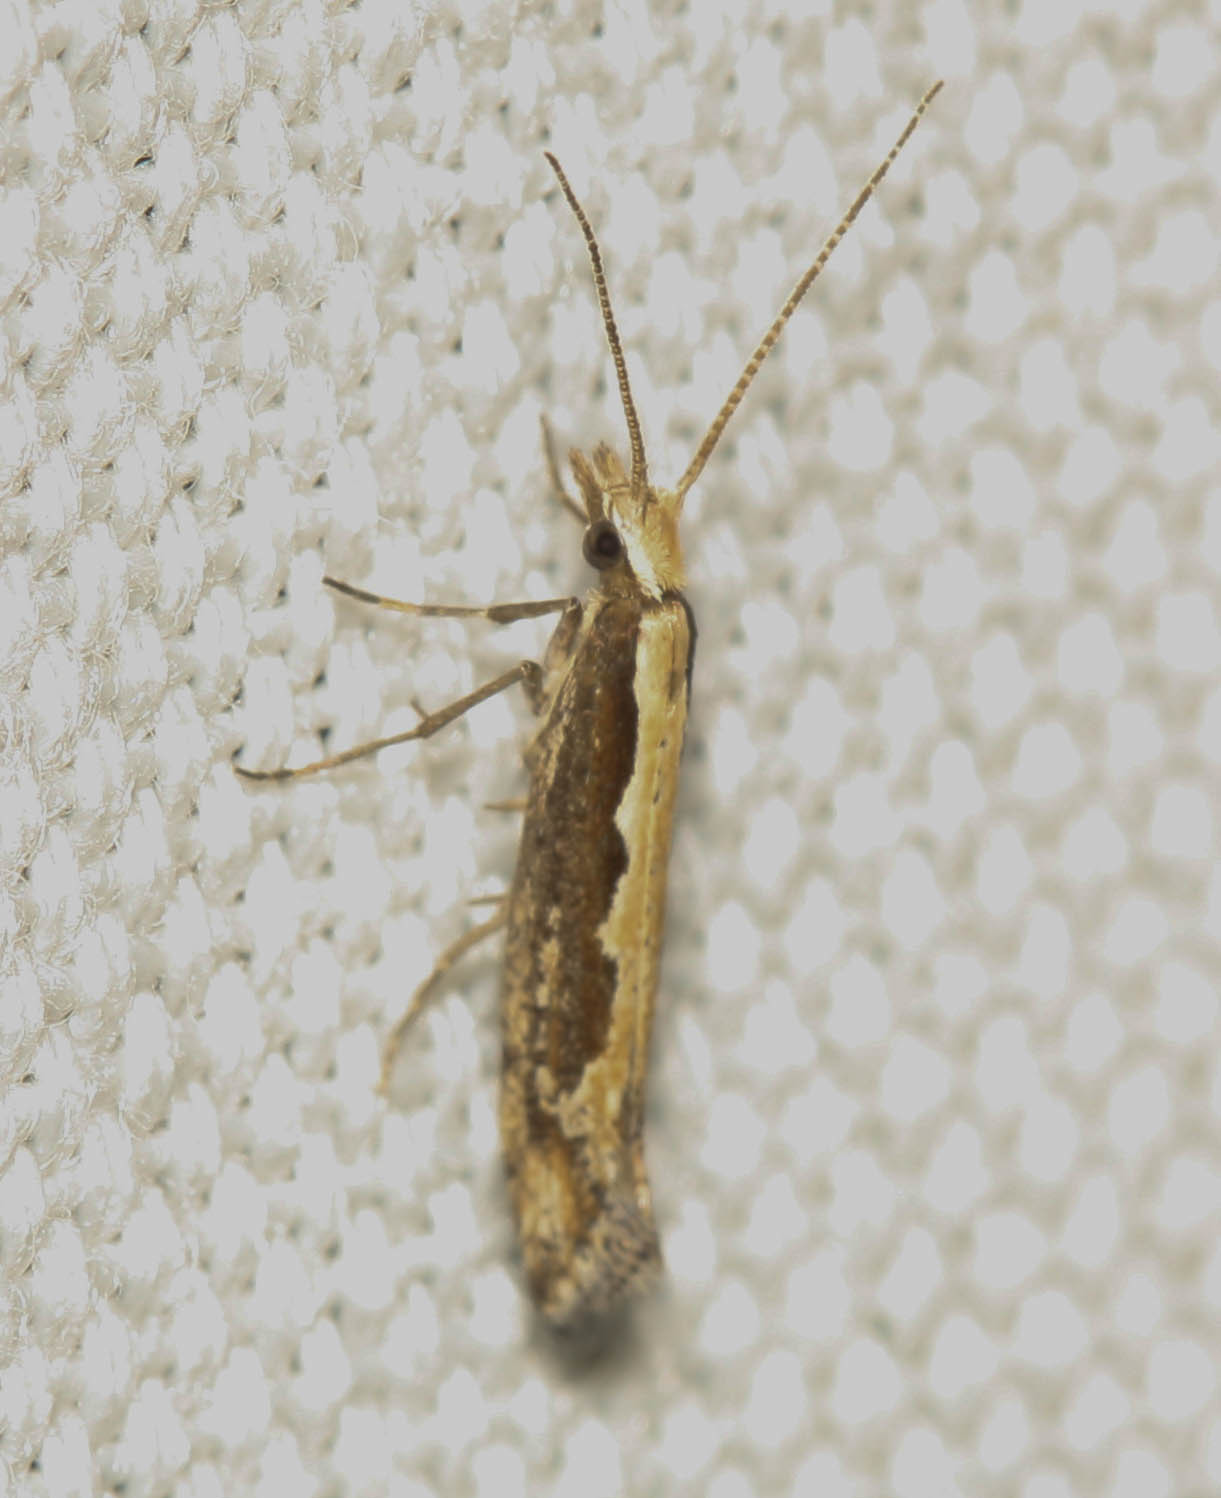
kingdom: Animalia
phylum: Arthropoda
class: Insecta
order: Lepidoptera
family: Plutellidae
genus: Plutella
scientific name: Plutella xylostella
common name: Diamond-back moth
